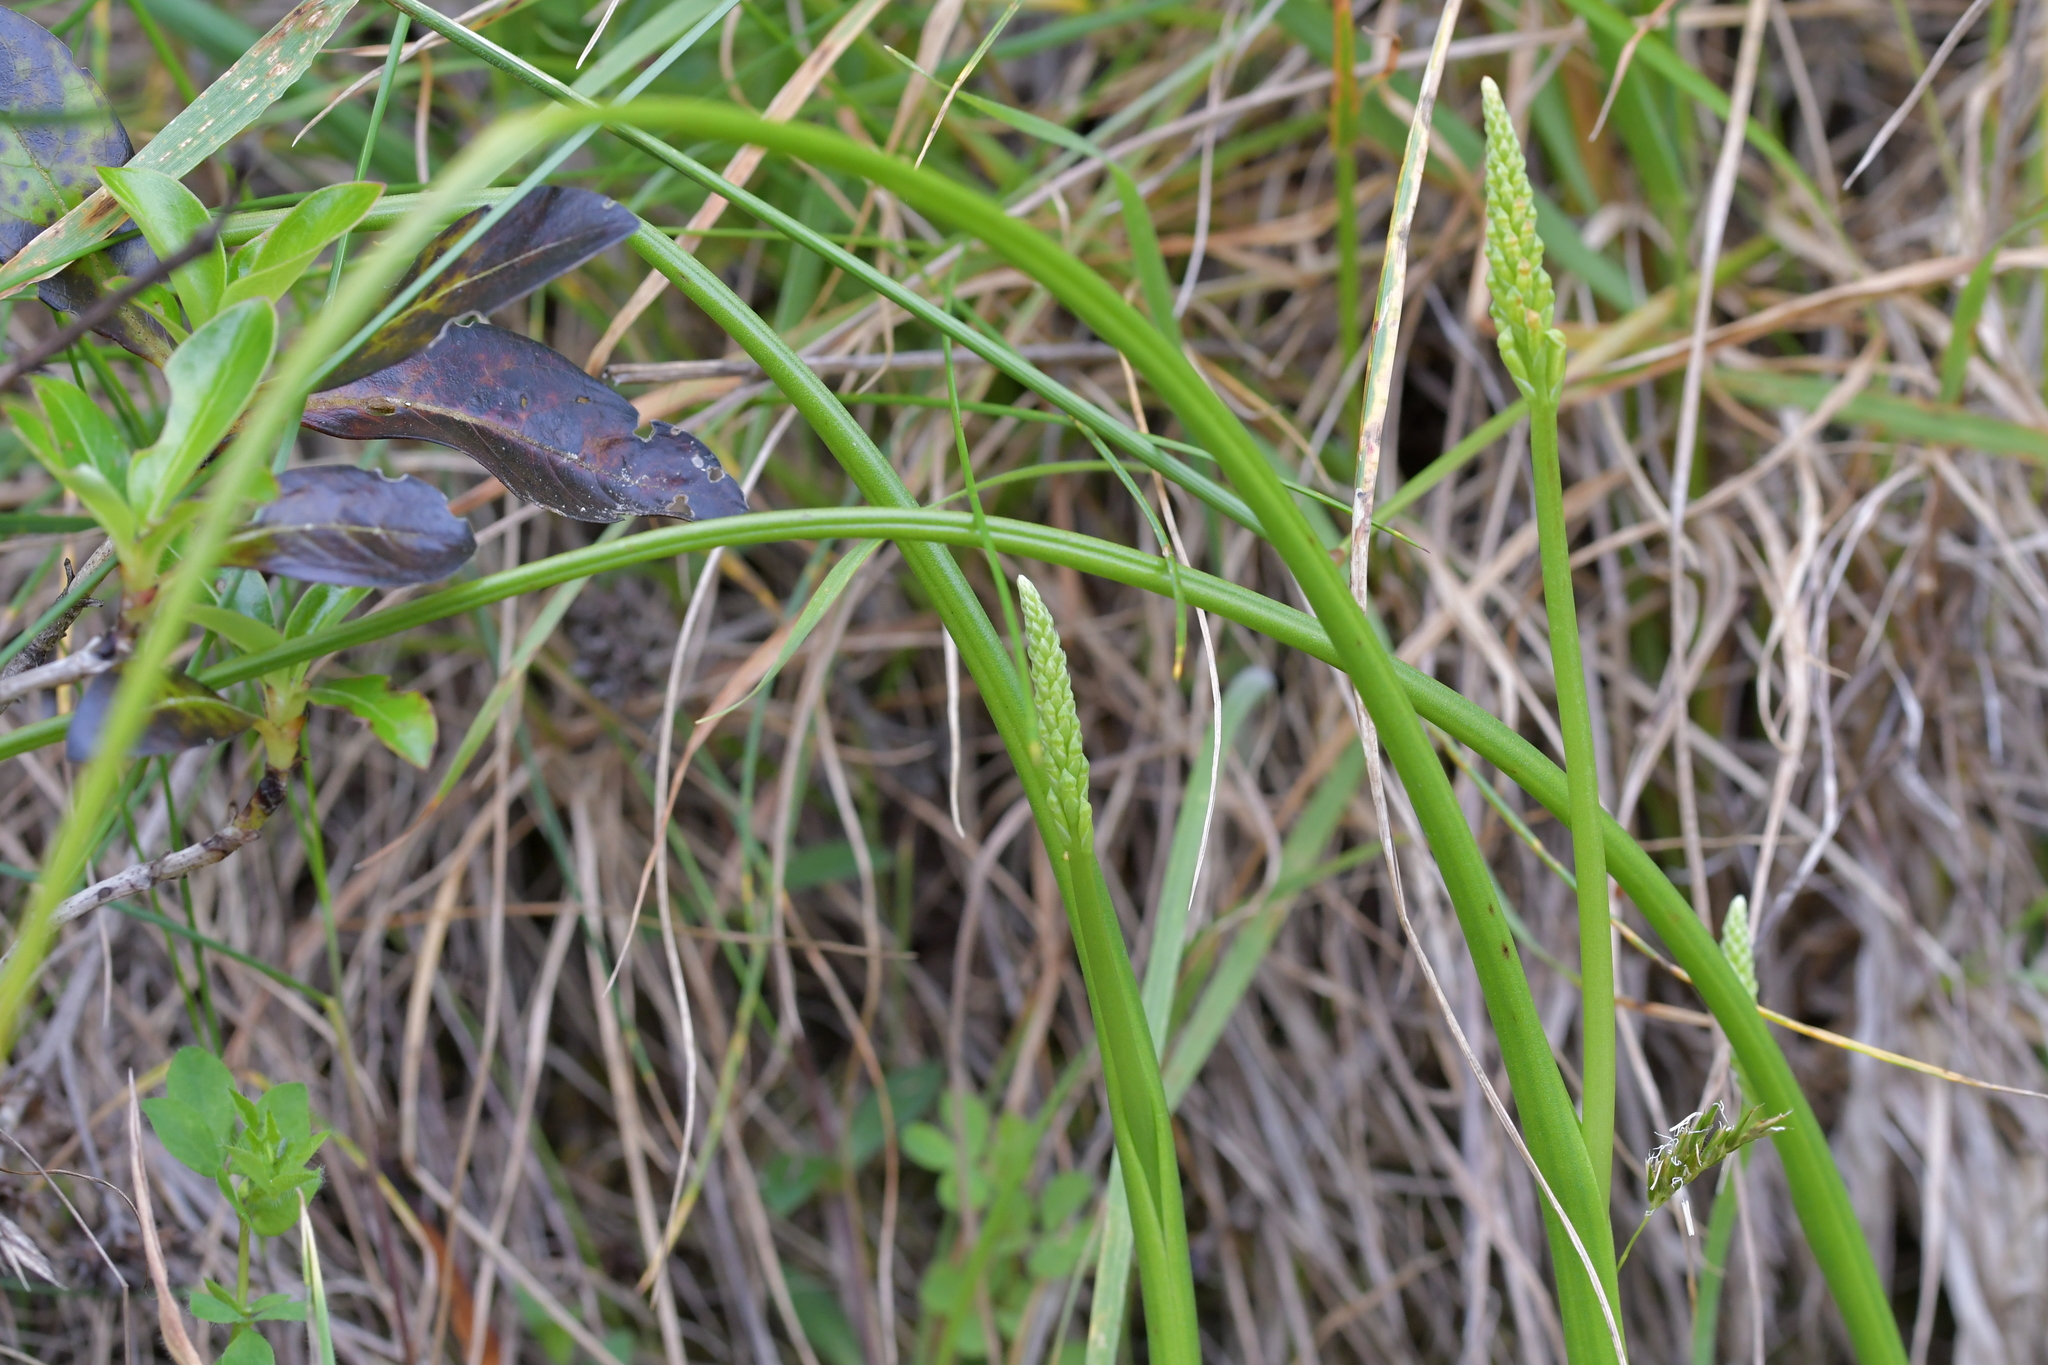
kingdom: Plantae
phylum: Tracheophyta
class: Liliopsida
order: Asparagales
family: Orchidaceae
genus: Microtis
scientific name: Microtis unifolia
